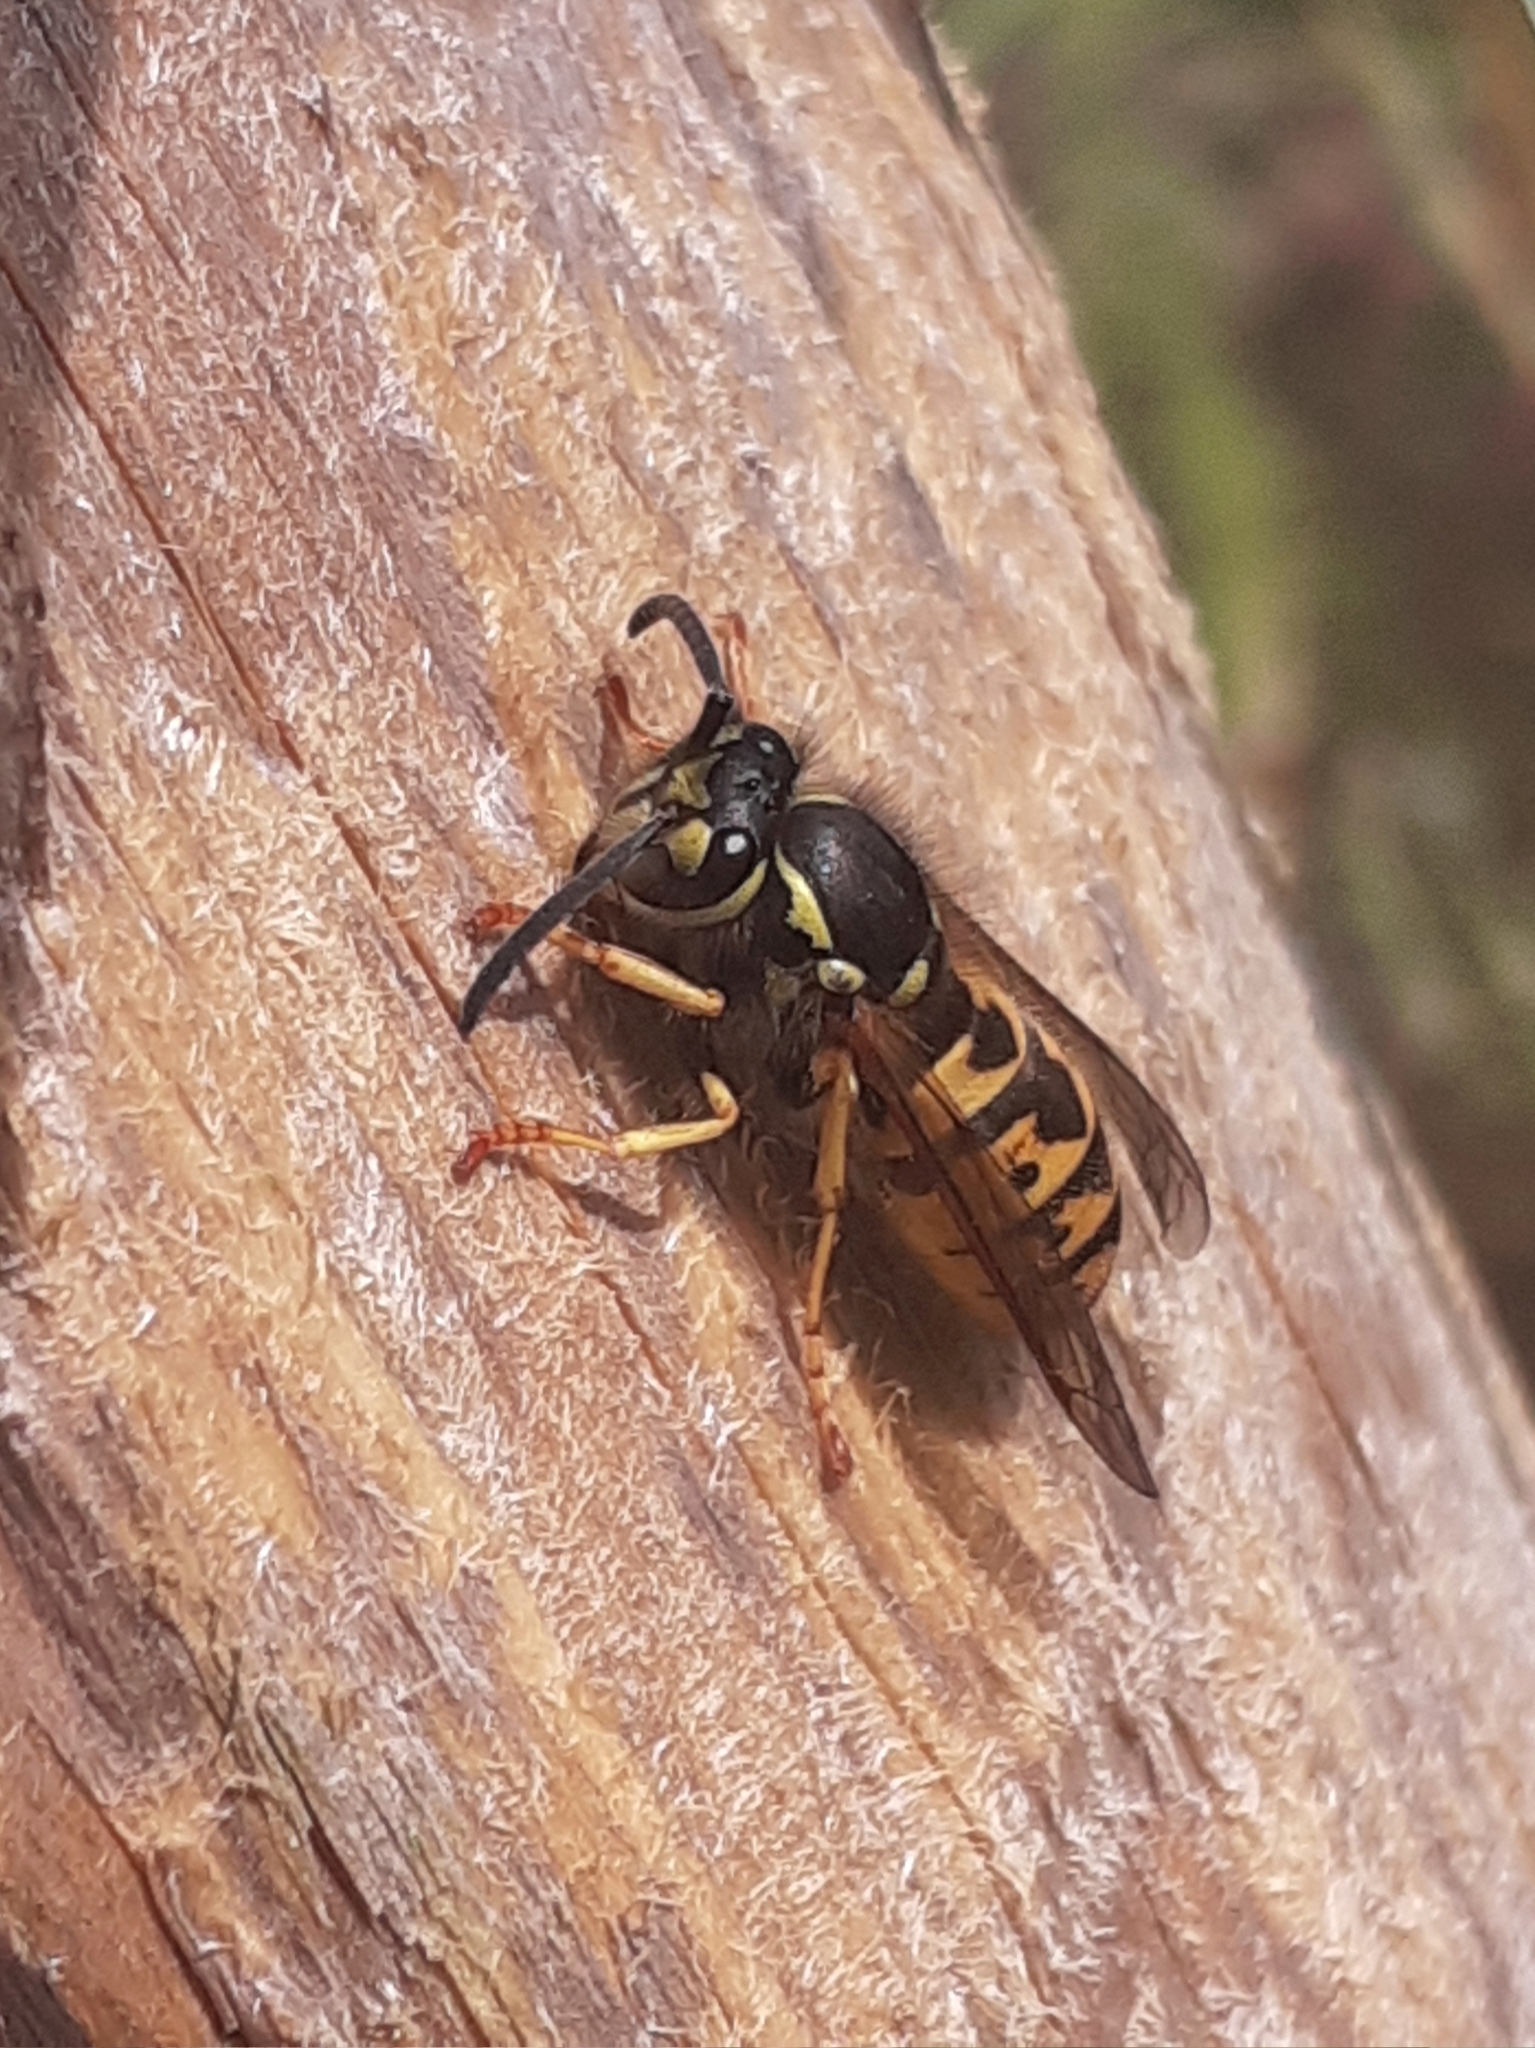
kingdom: Animalia
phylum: Arthropoda
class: Insecta
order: Hymenoptera
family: Vespidae
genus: Vespula
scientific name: Vespula germanica
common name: German wasp
